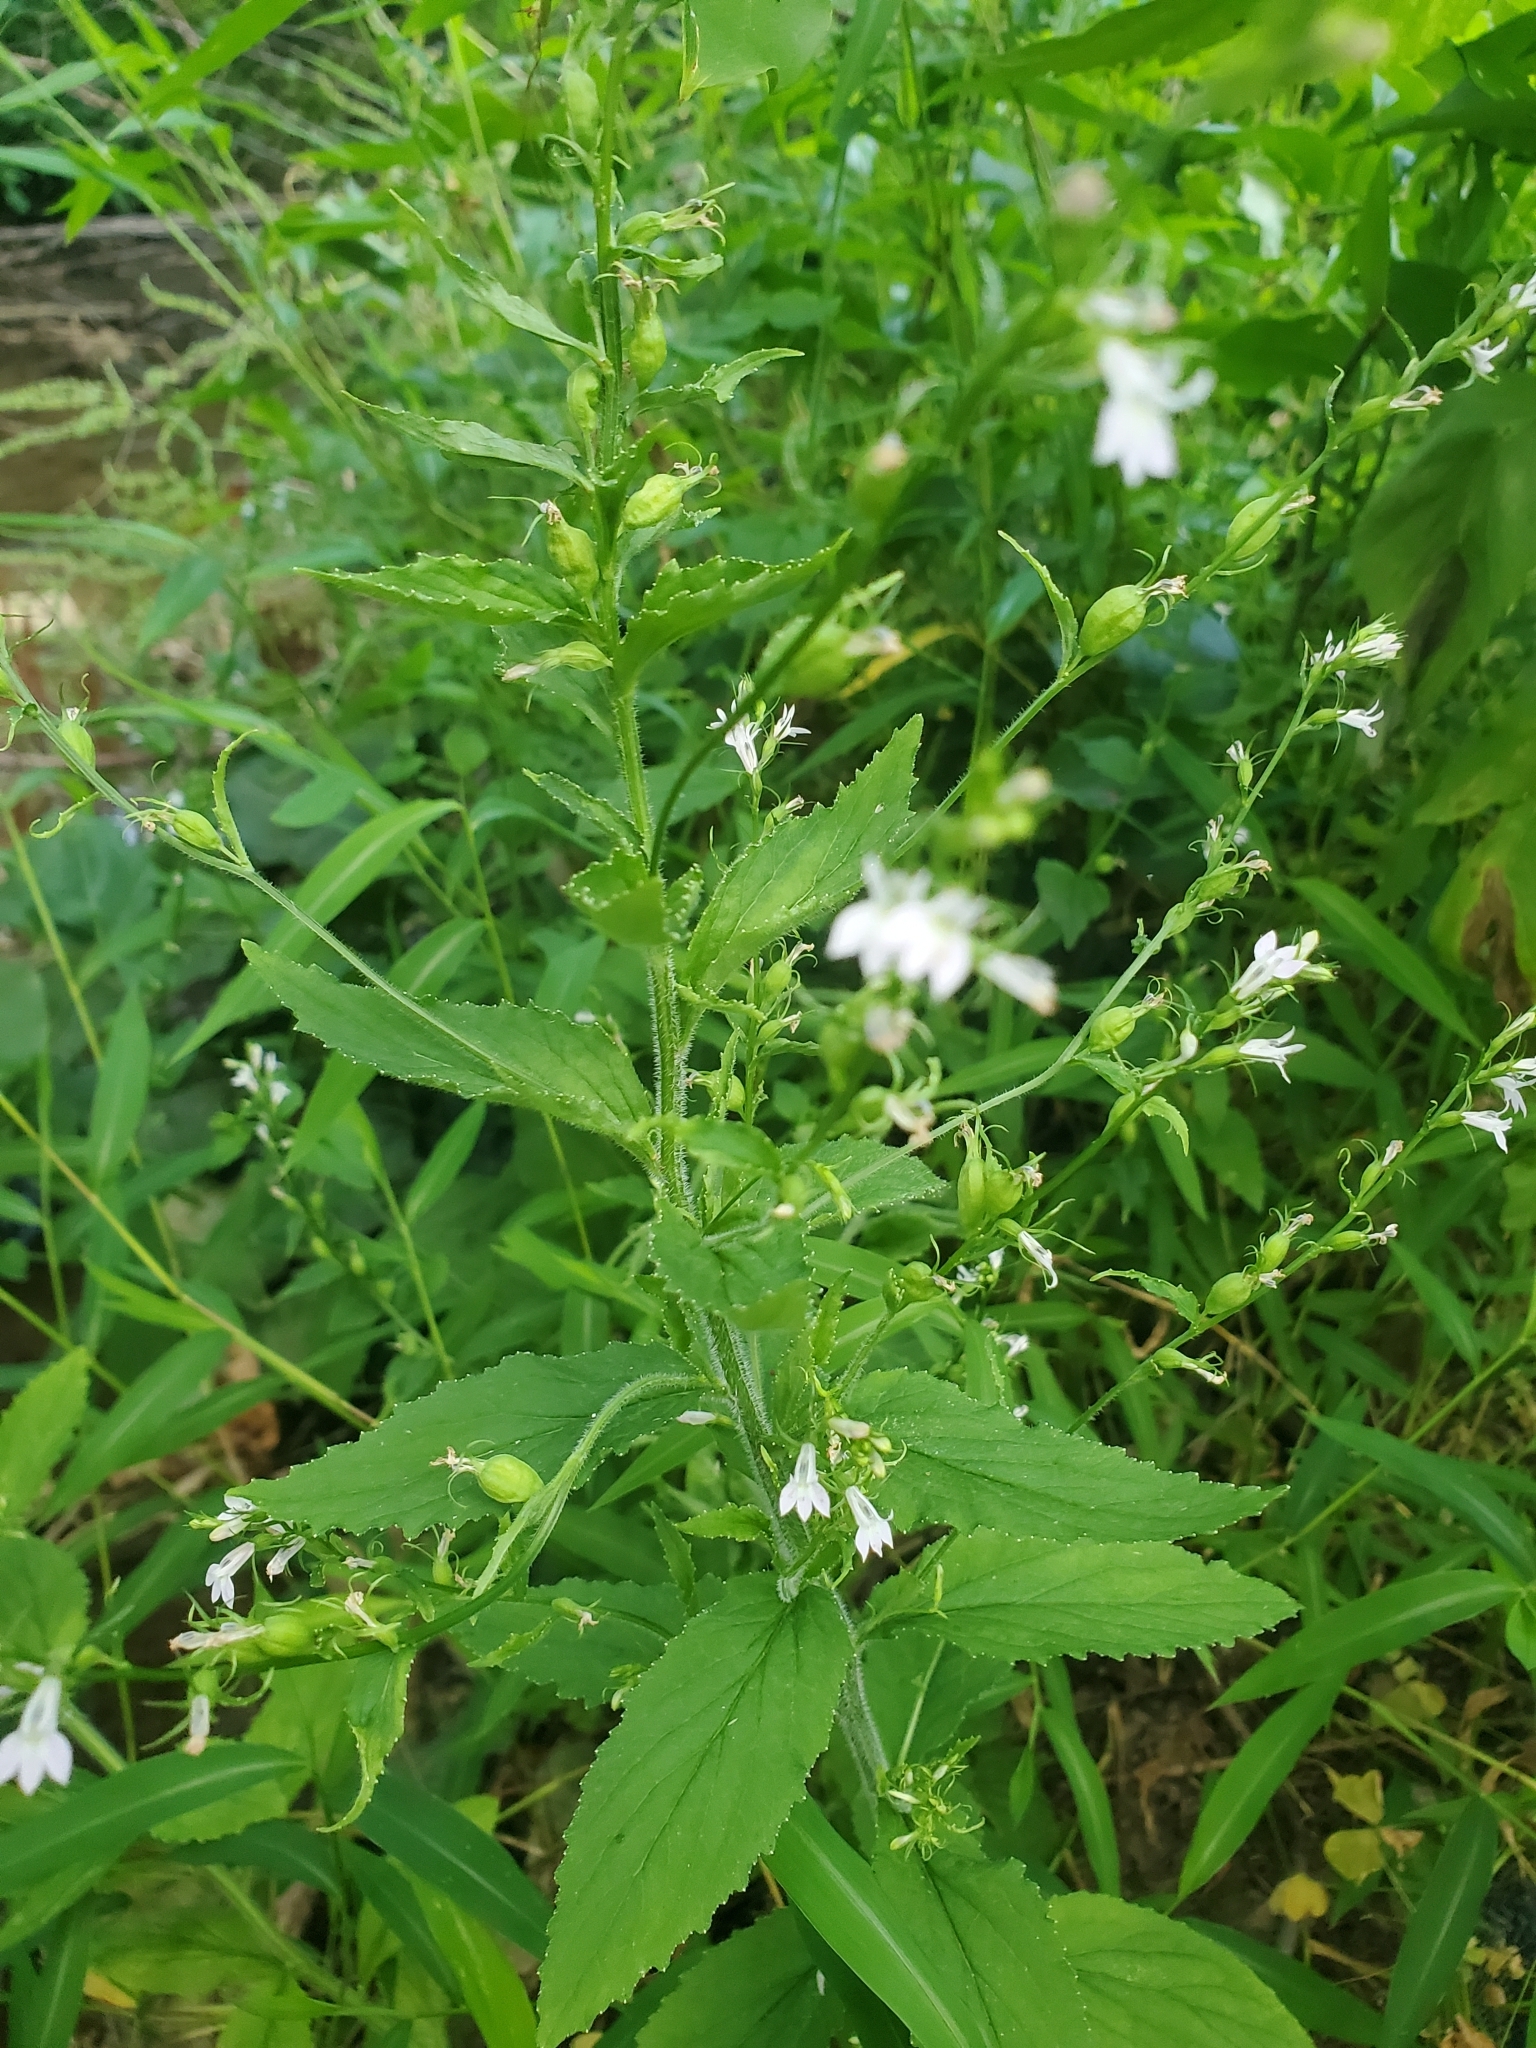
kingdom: Plantae
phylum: Tracheophyta
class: Magnoliopsida
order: Asterales
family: Campanulaceae
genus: Lobelia
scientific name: Lobelia inflata
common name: Indian tobacco
